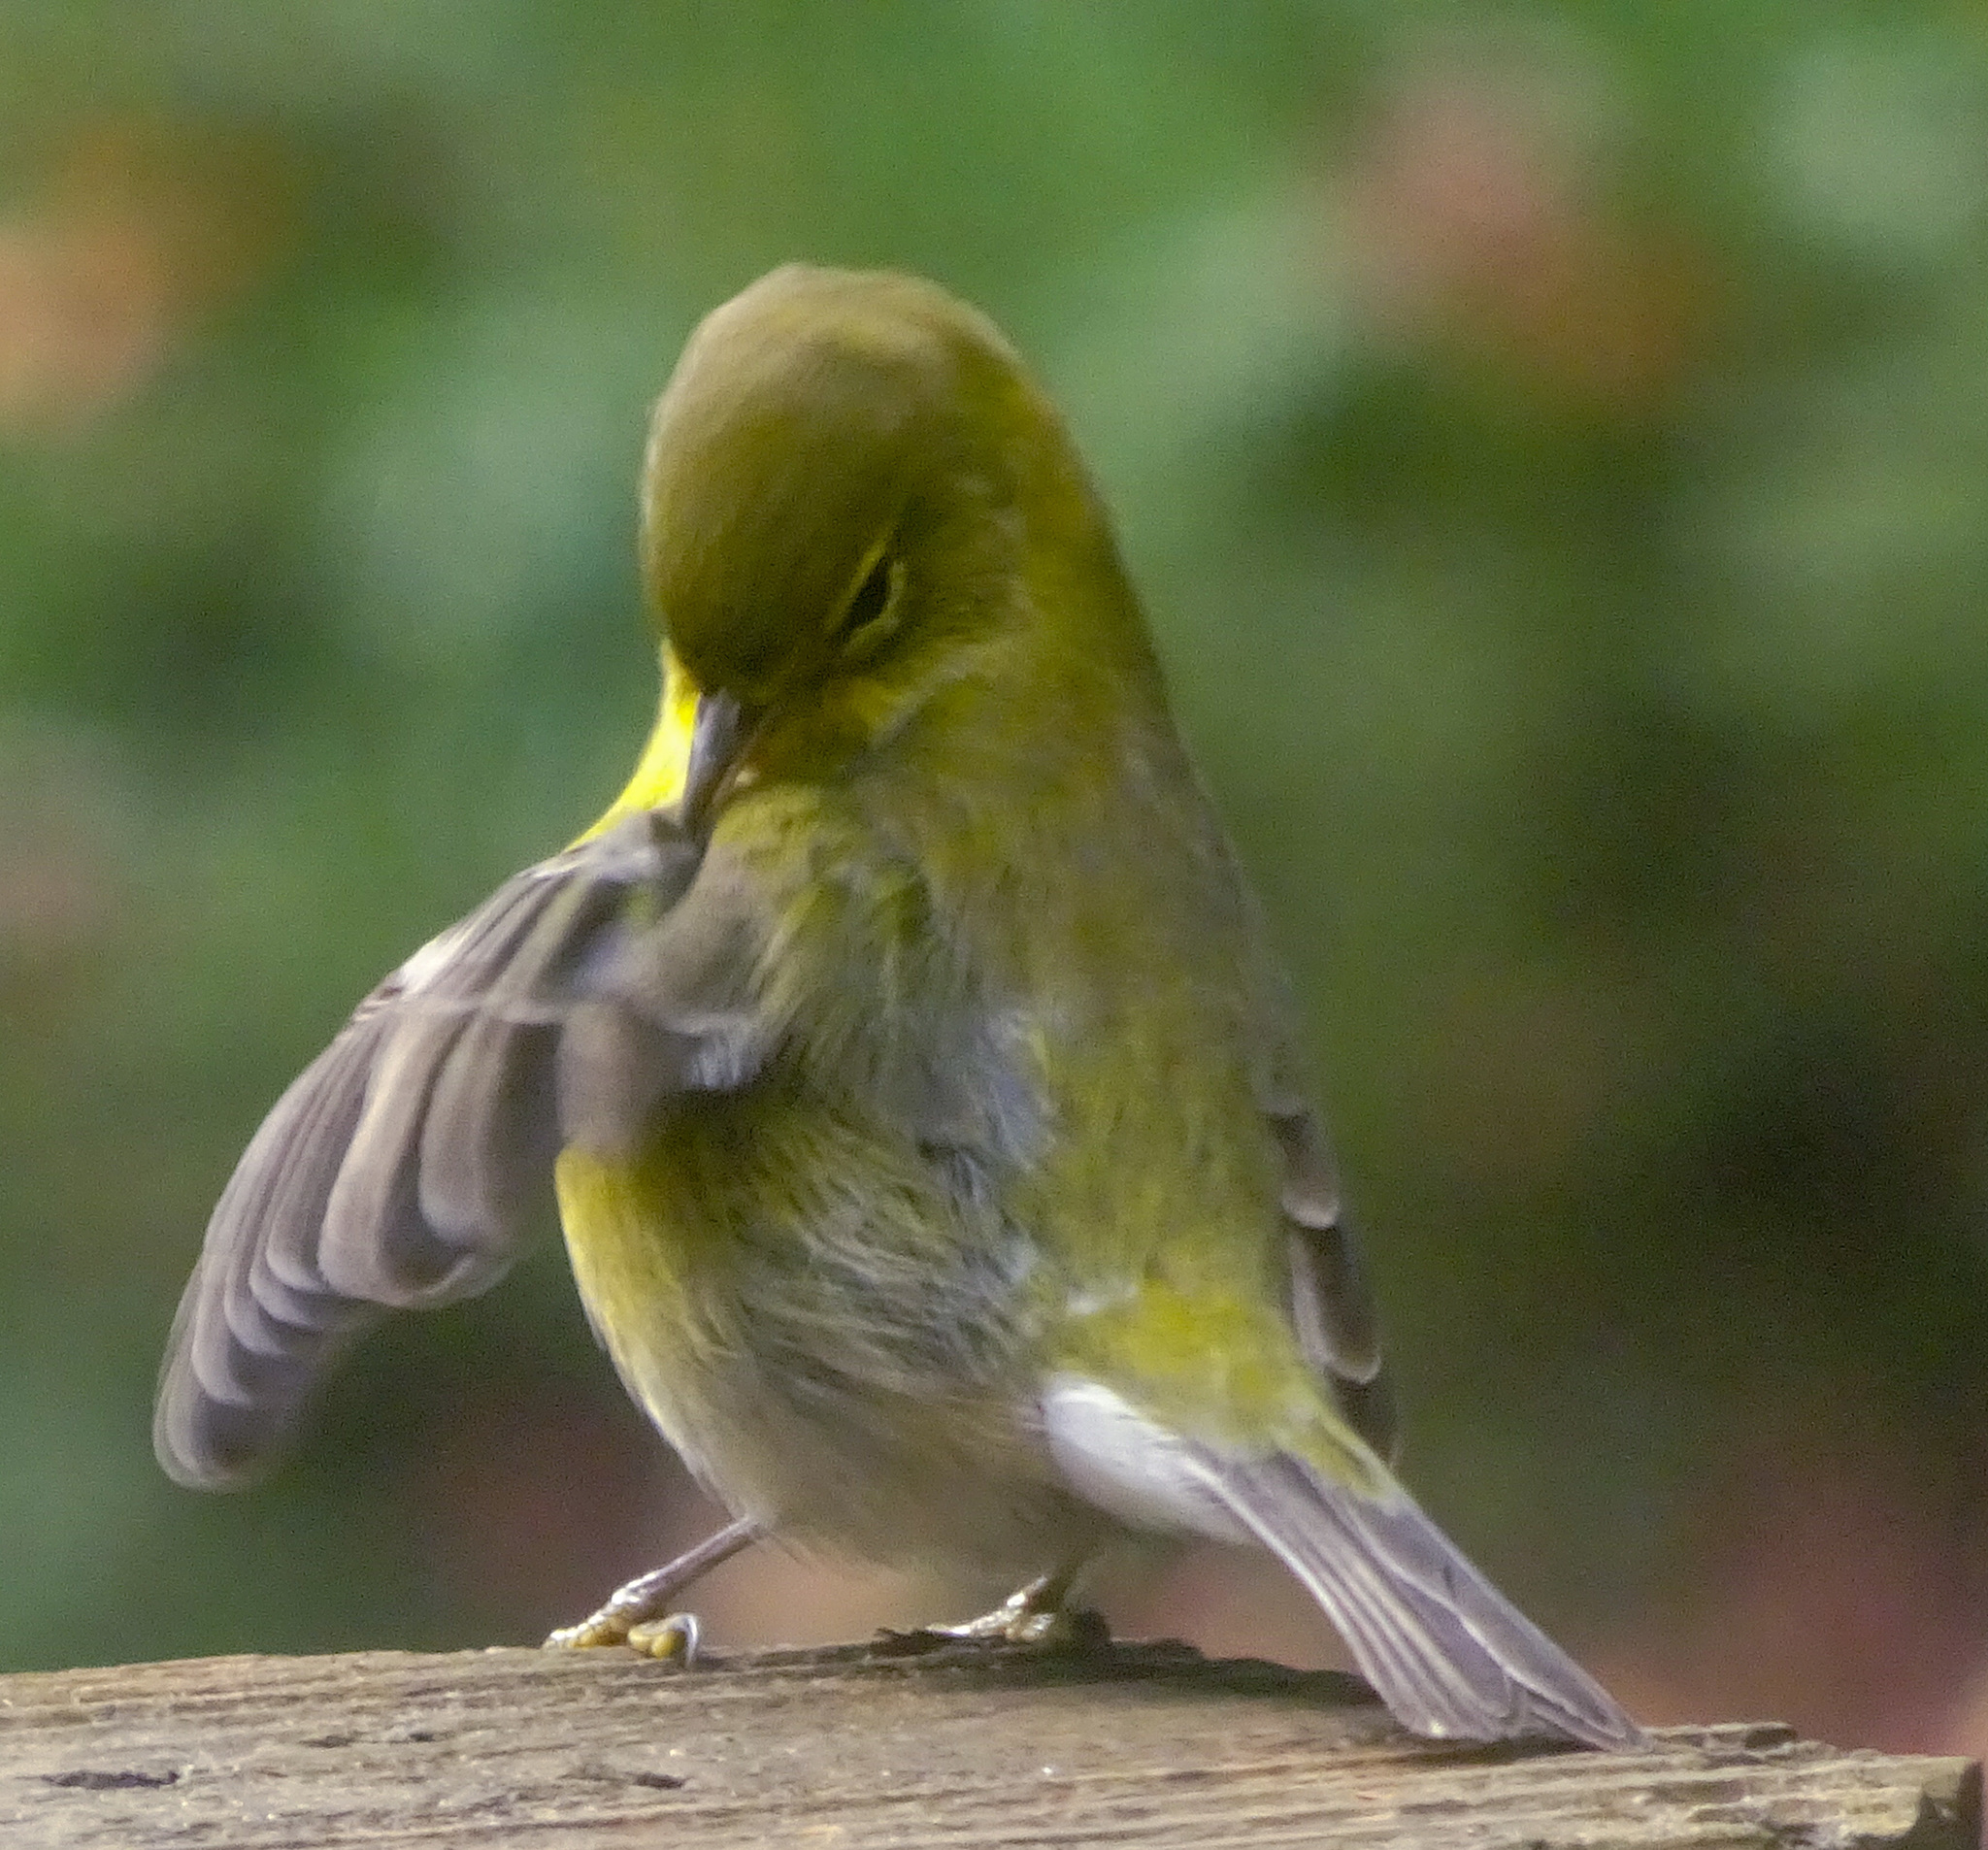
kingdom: Animalia
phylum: Chordata
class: Aves
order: Passeriformes
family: Parulidae
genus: Setophaga
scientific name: Setophaga pinus
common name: Pine warbler
